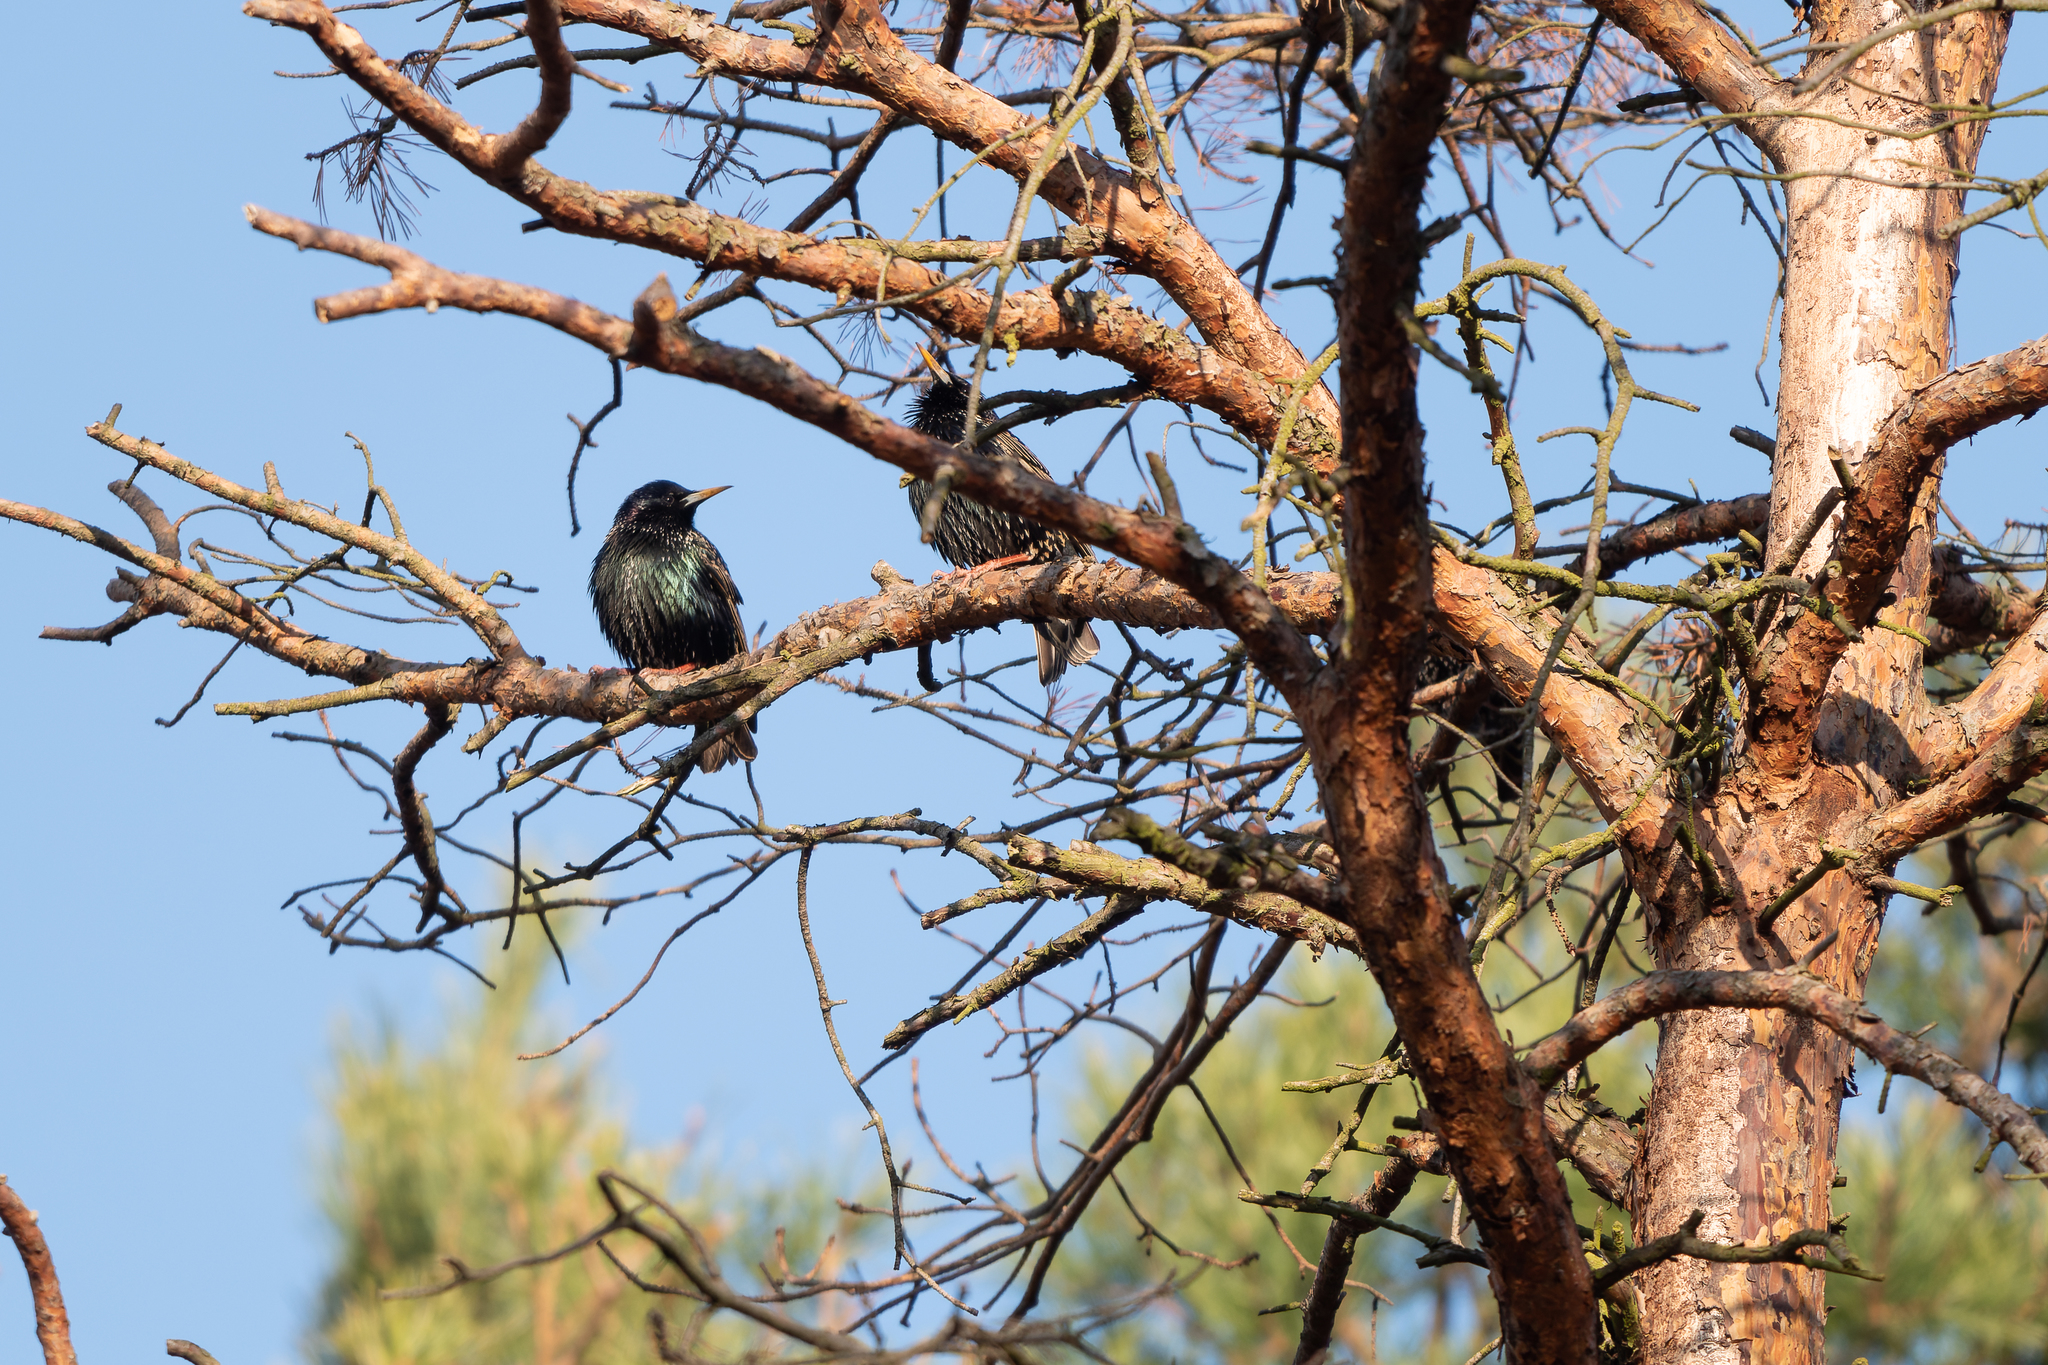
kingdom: Animalia
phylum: Chordata
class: Aves
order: Passeriformes
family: Sturnidae
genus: Sturnus
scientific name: Sturnus vulgaris
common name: Common starling
